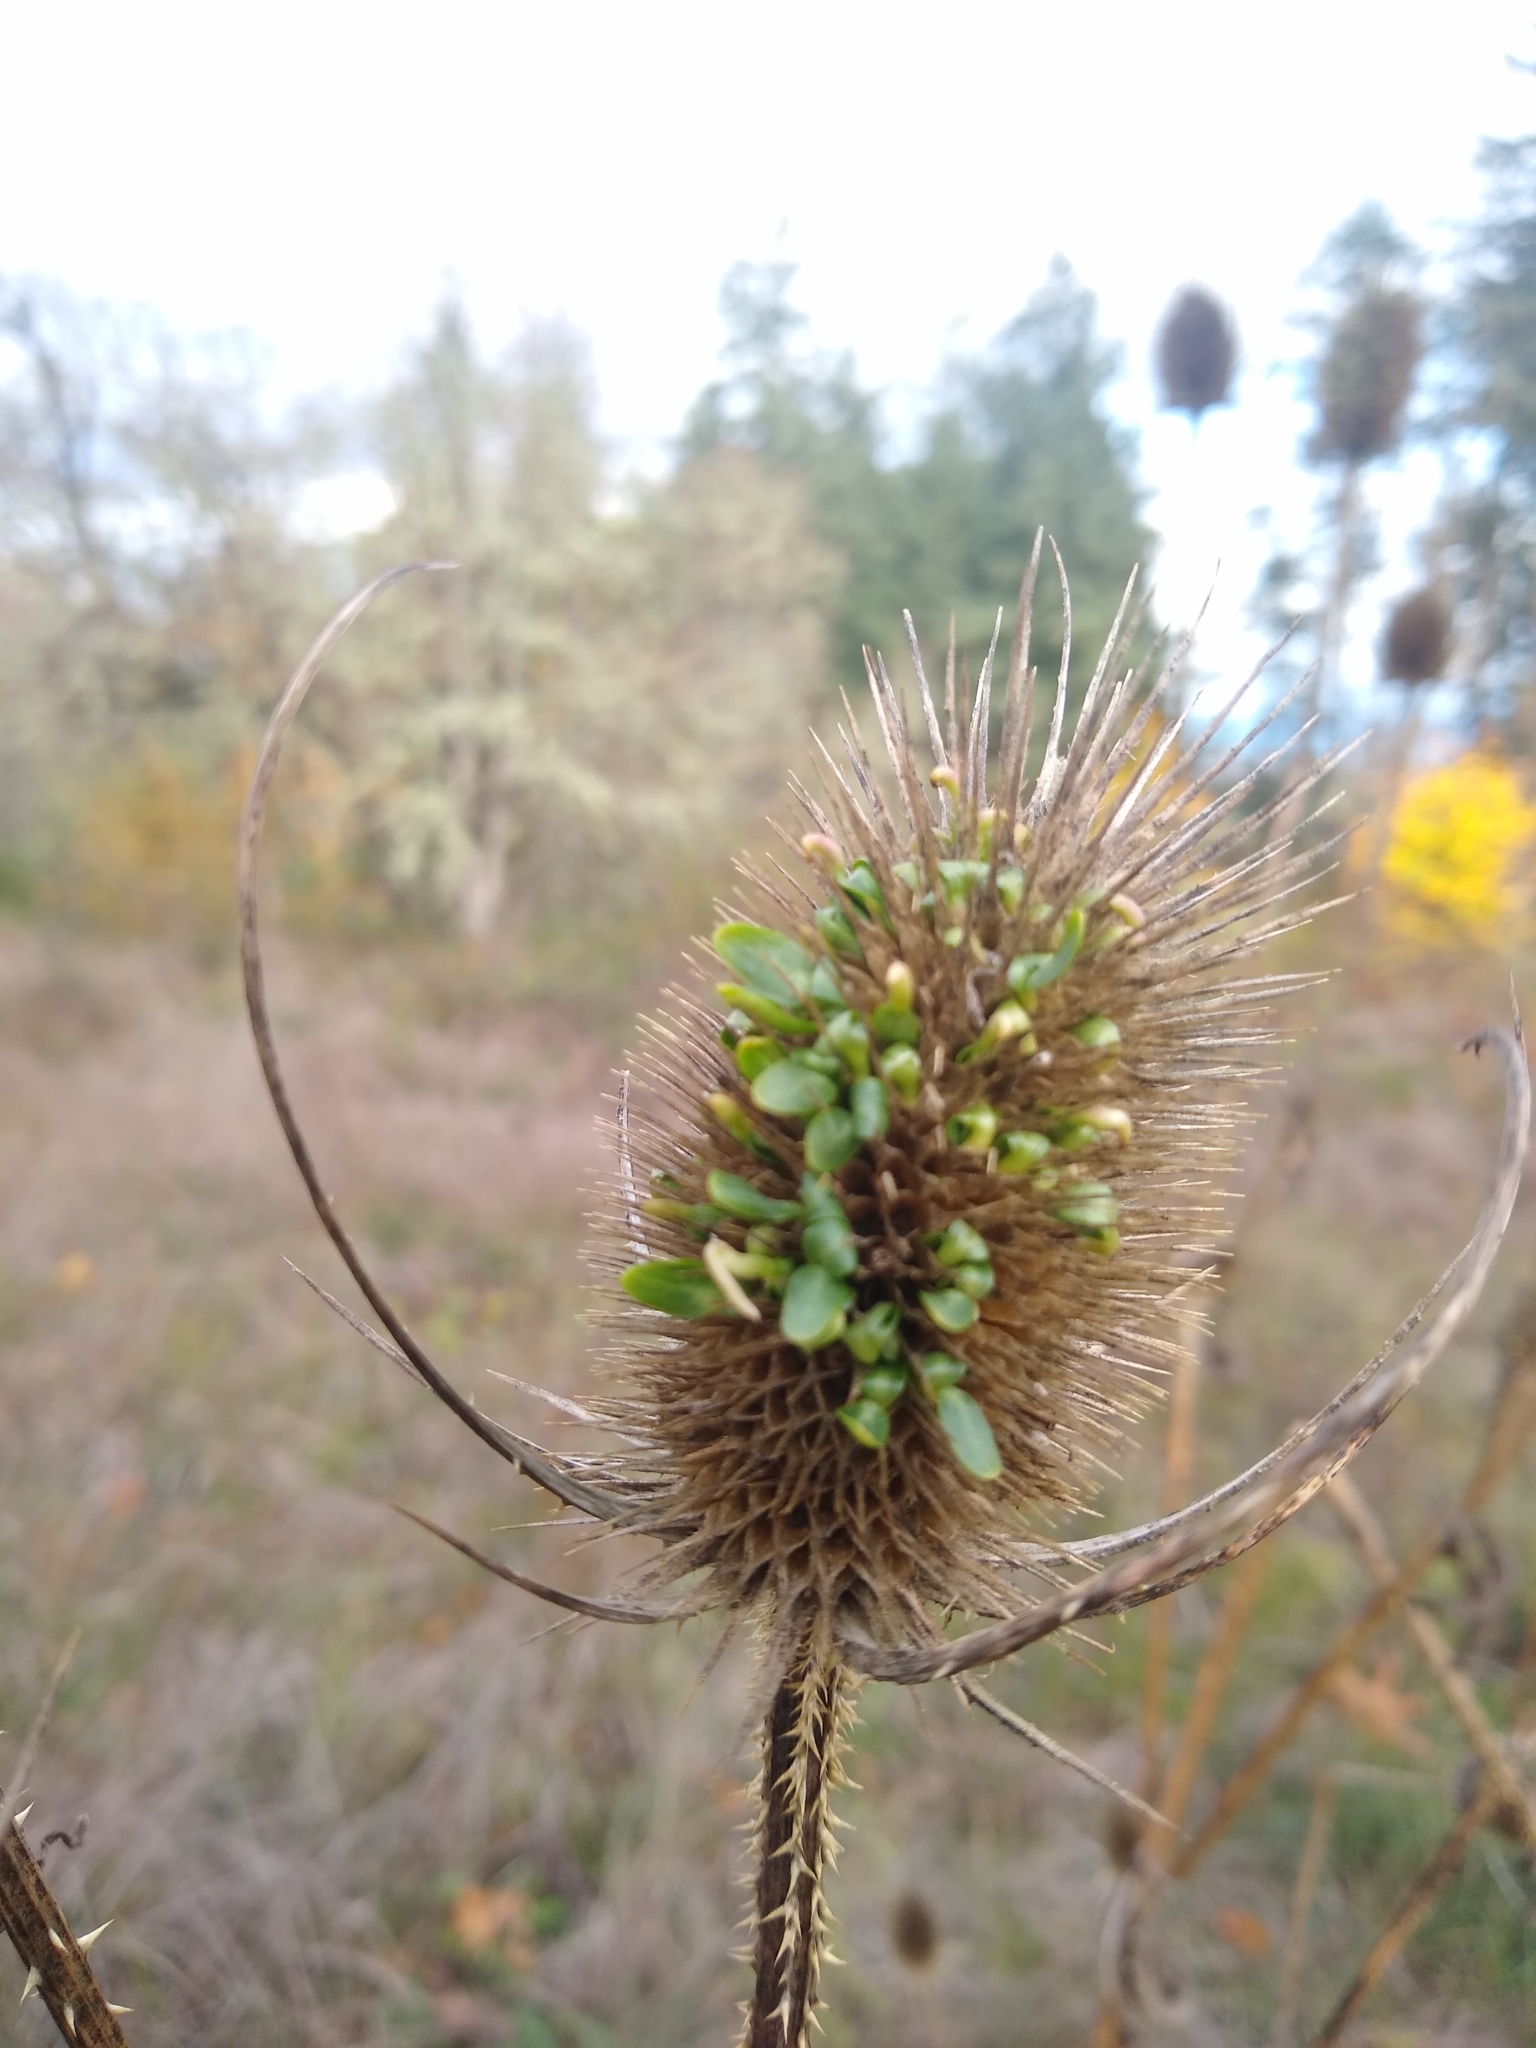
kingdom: Plantae
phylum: Tracheophyta
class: Magnoliopsida
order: Dipsacales
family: Caprifoliaceae
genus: Dipsacus
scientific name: Dipsacus fullonum
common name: Teasel
